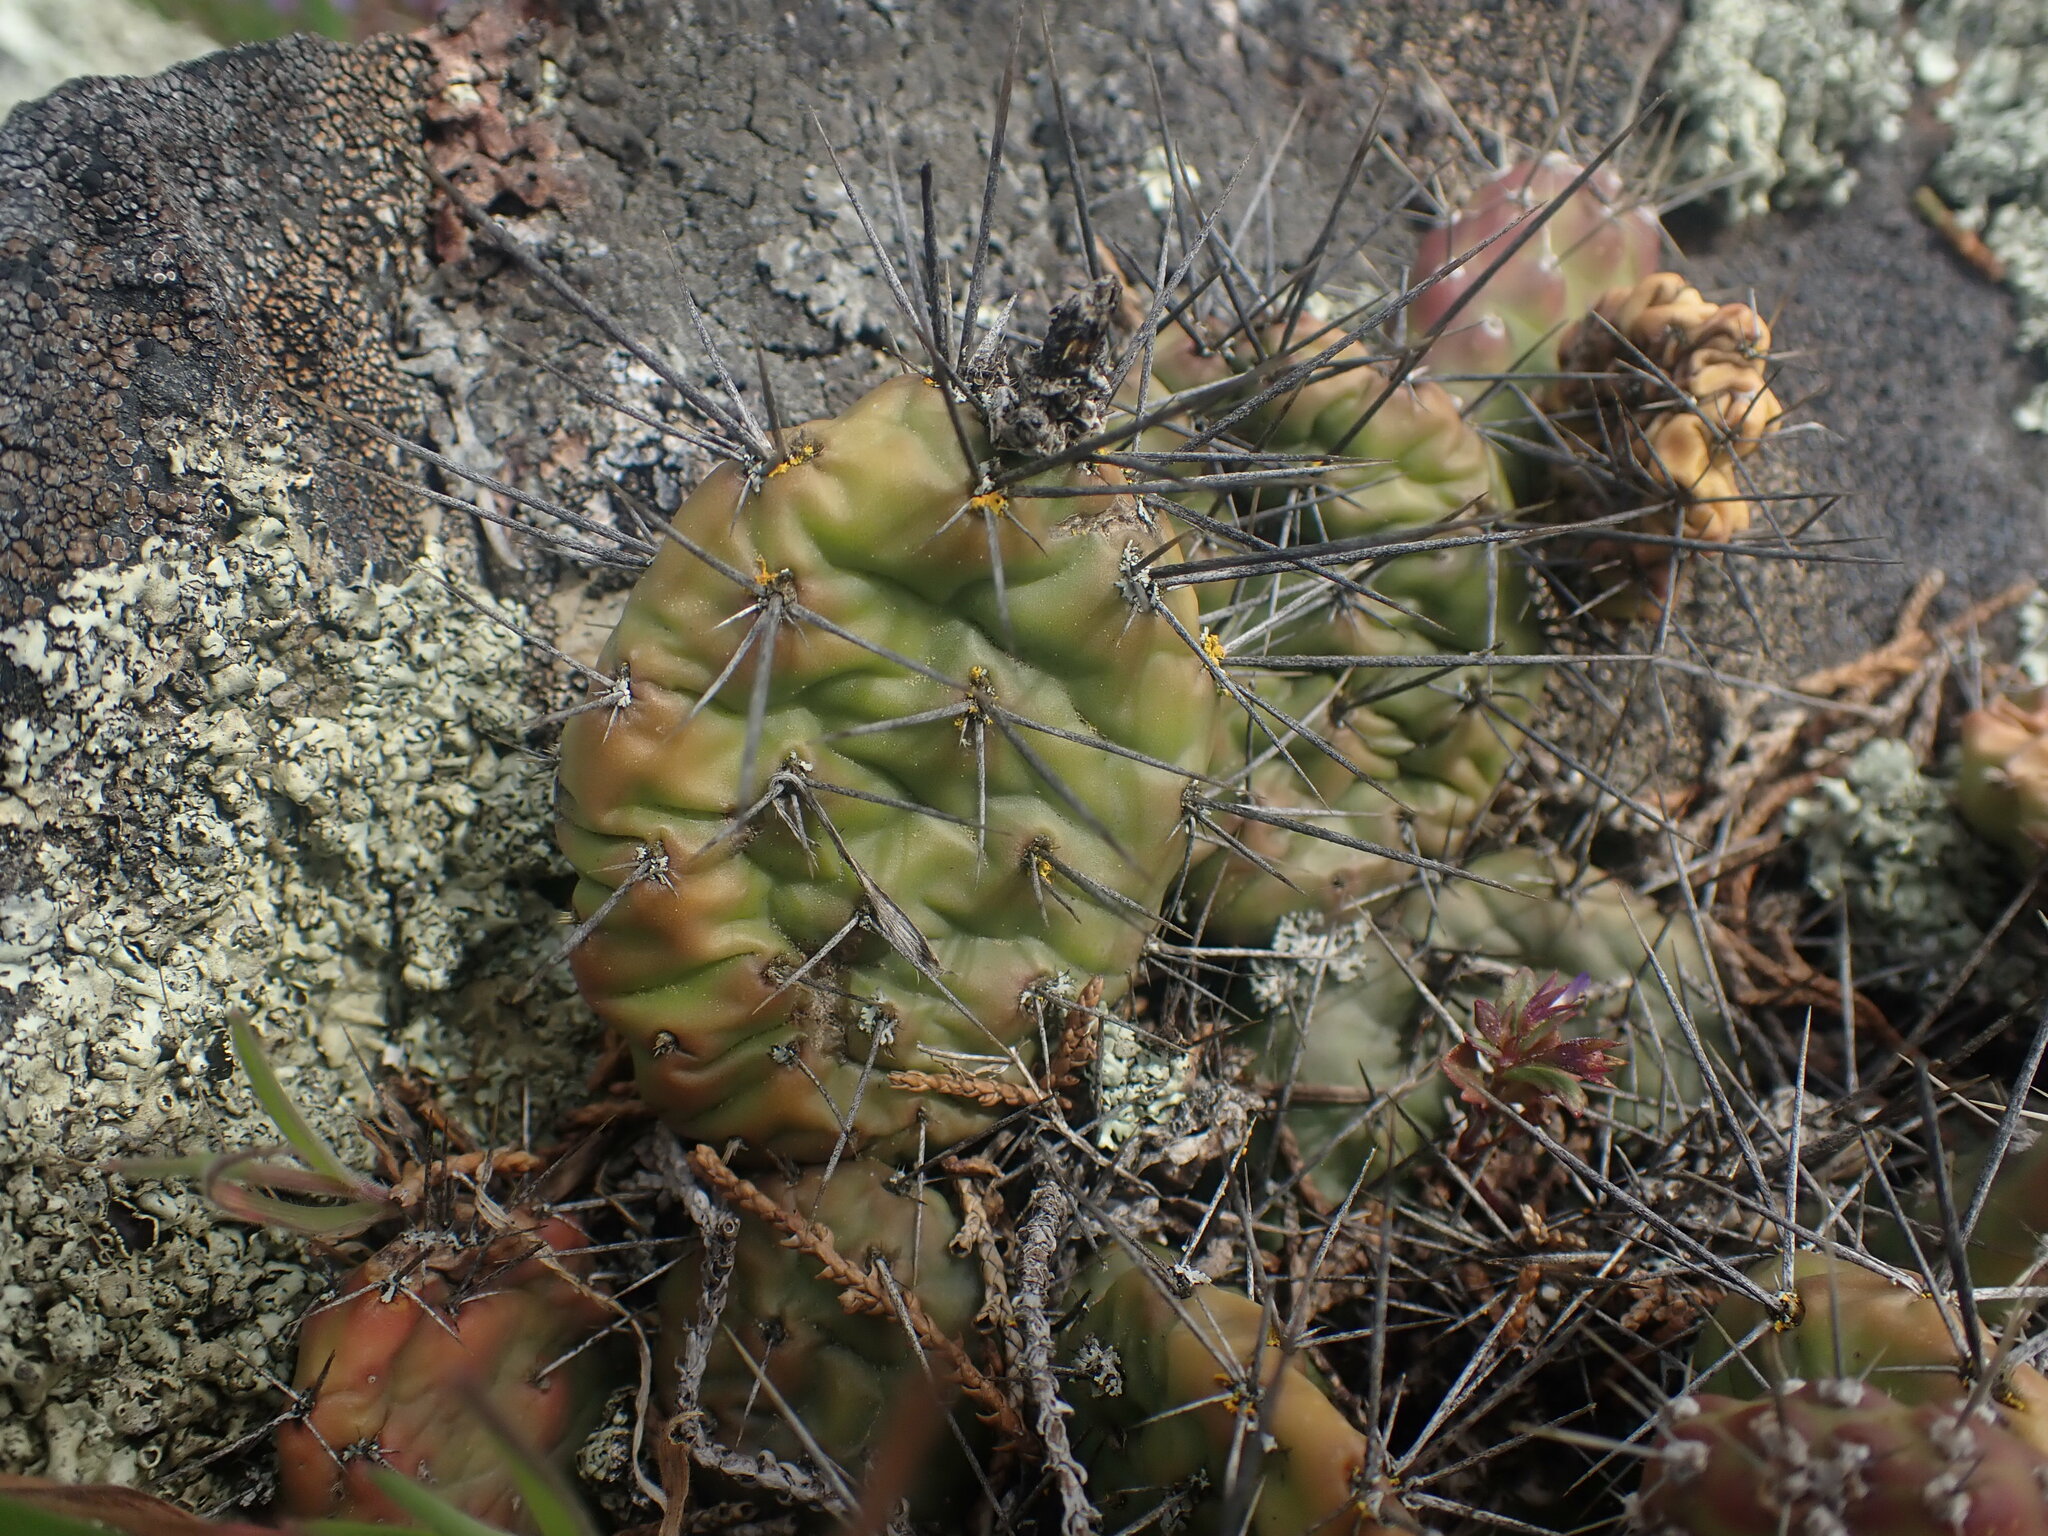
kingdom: Plantae
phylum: Tracheophyta
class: Magnoliopsida
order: Caryophyllales
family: Cactaceae
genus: Opuntia
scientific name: Opuntia fragilis
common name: Brittle cactus
